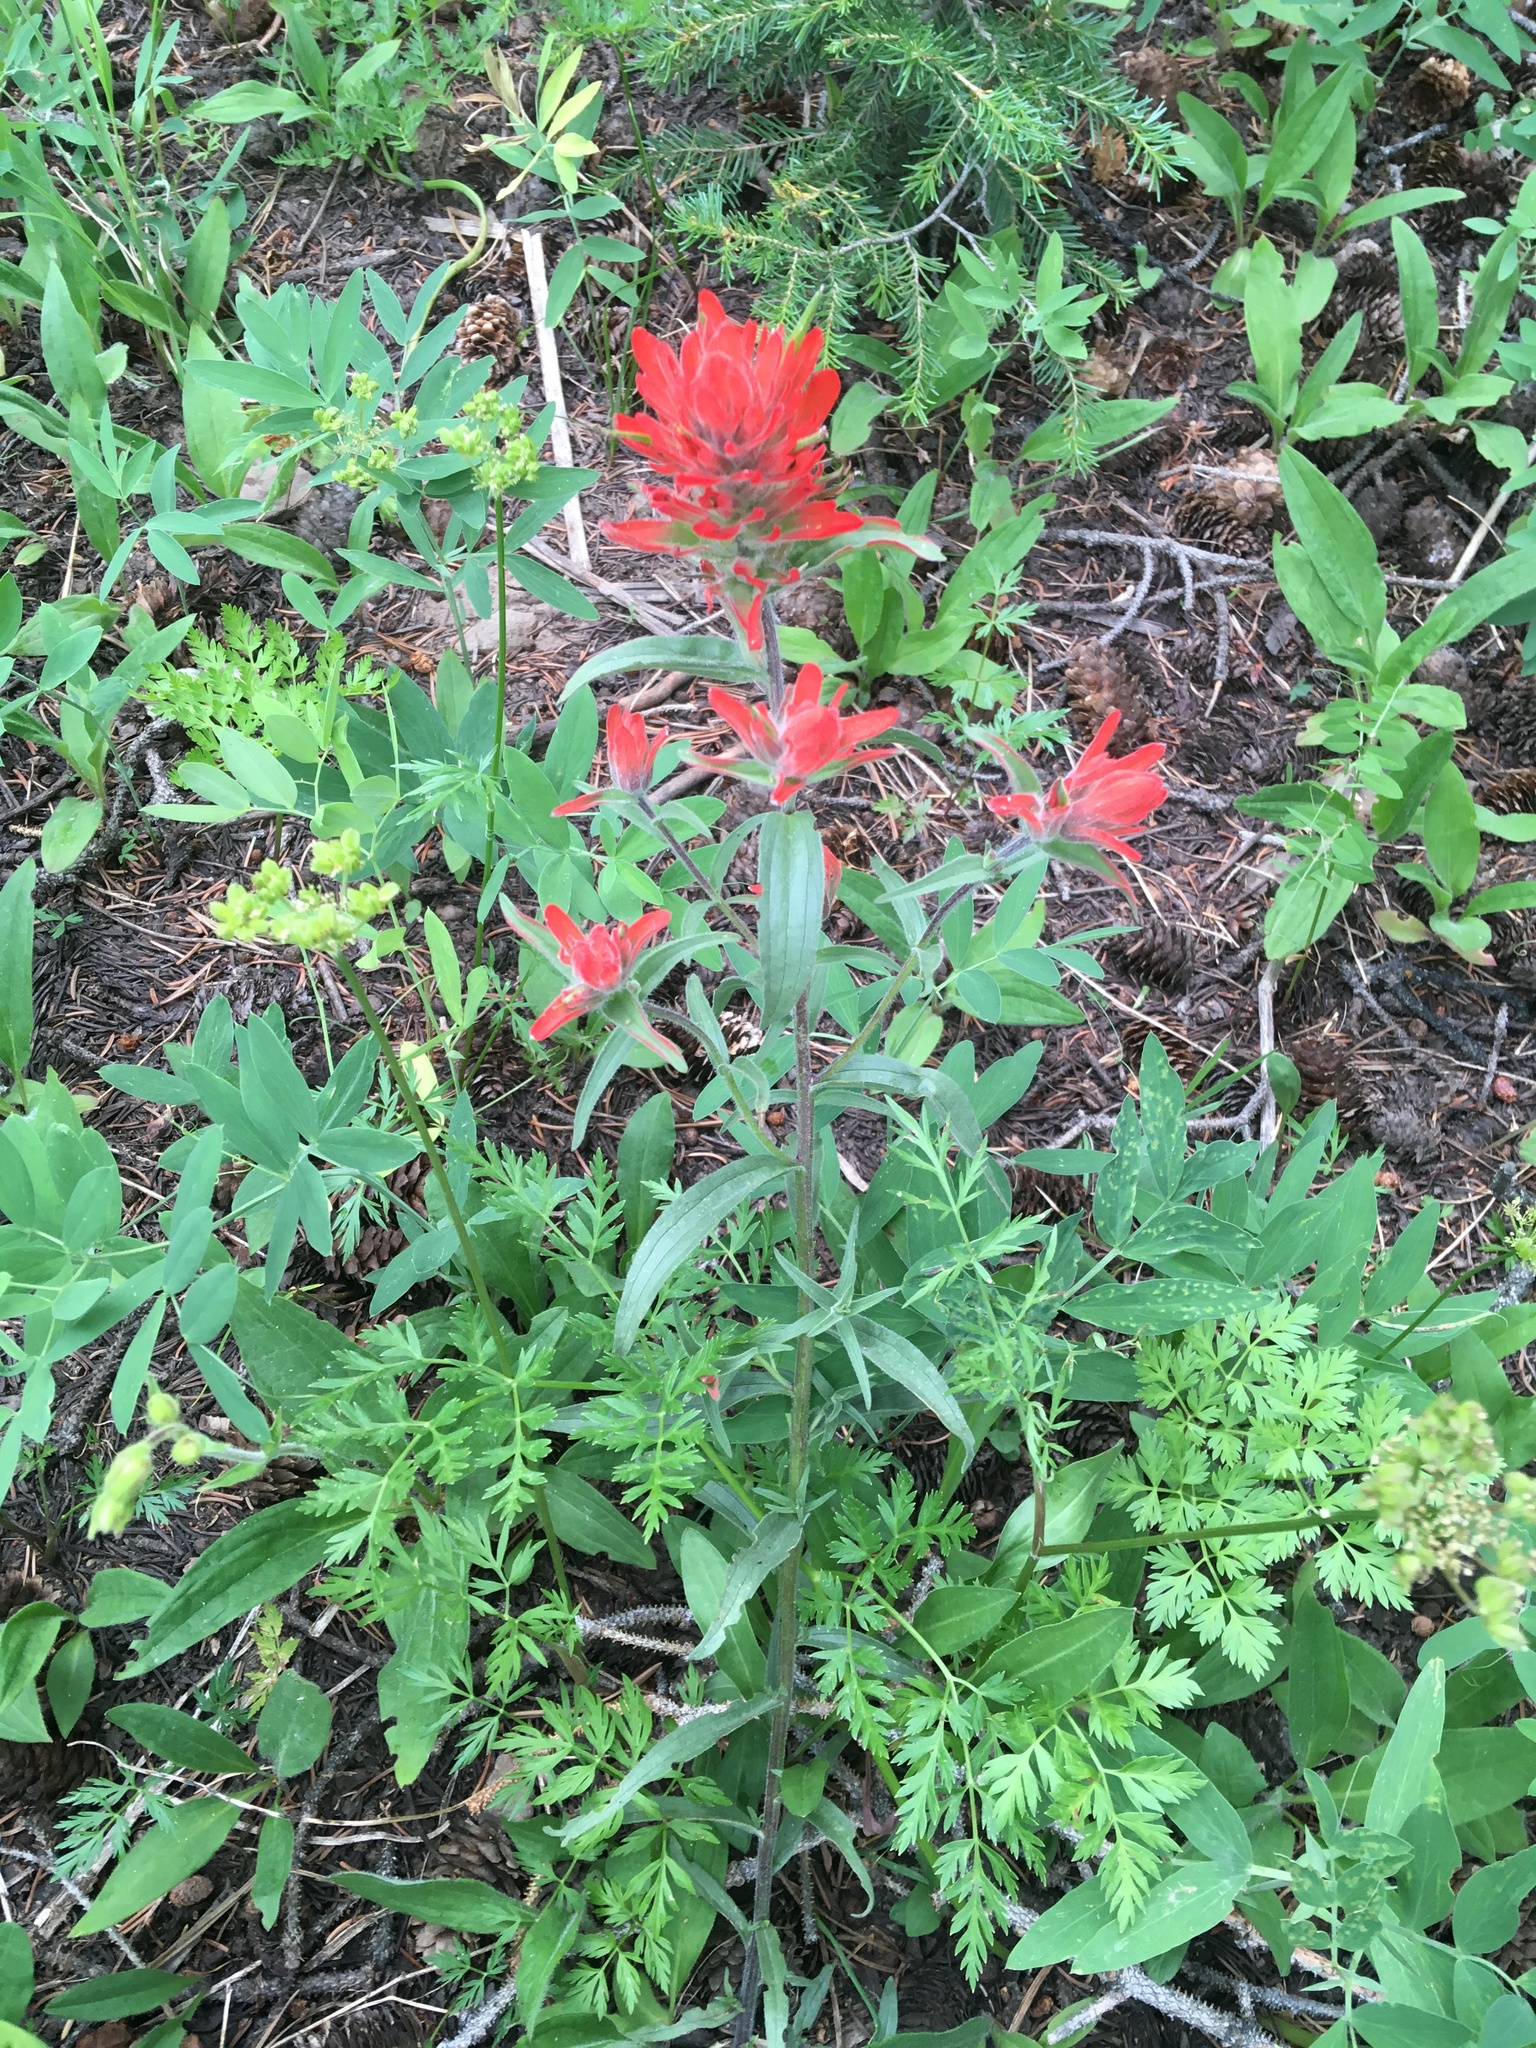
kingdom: Plantae
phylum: Tracheophyta
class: Magnoliopsida
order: Lamiales
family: Orobanchaceae
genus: Castilleja
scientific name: Castilleja miniata
